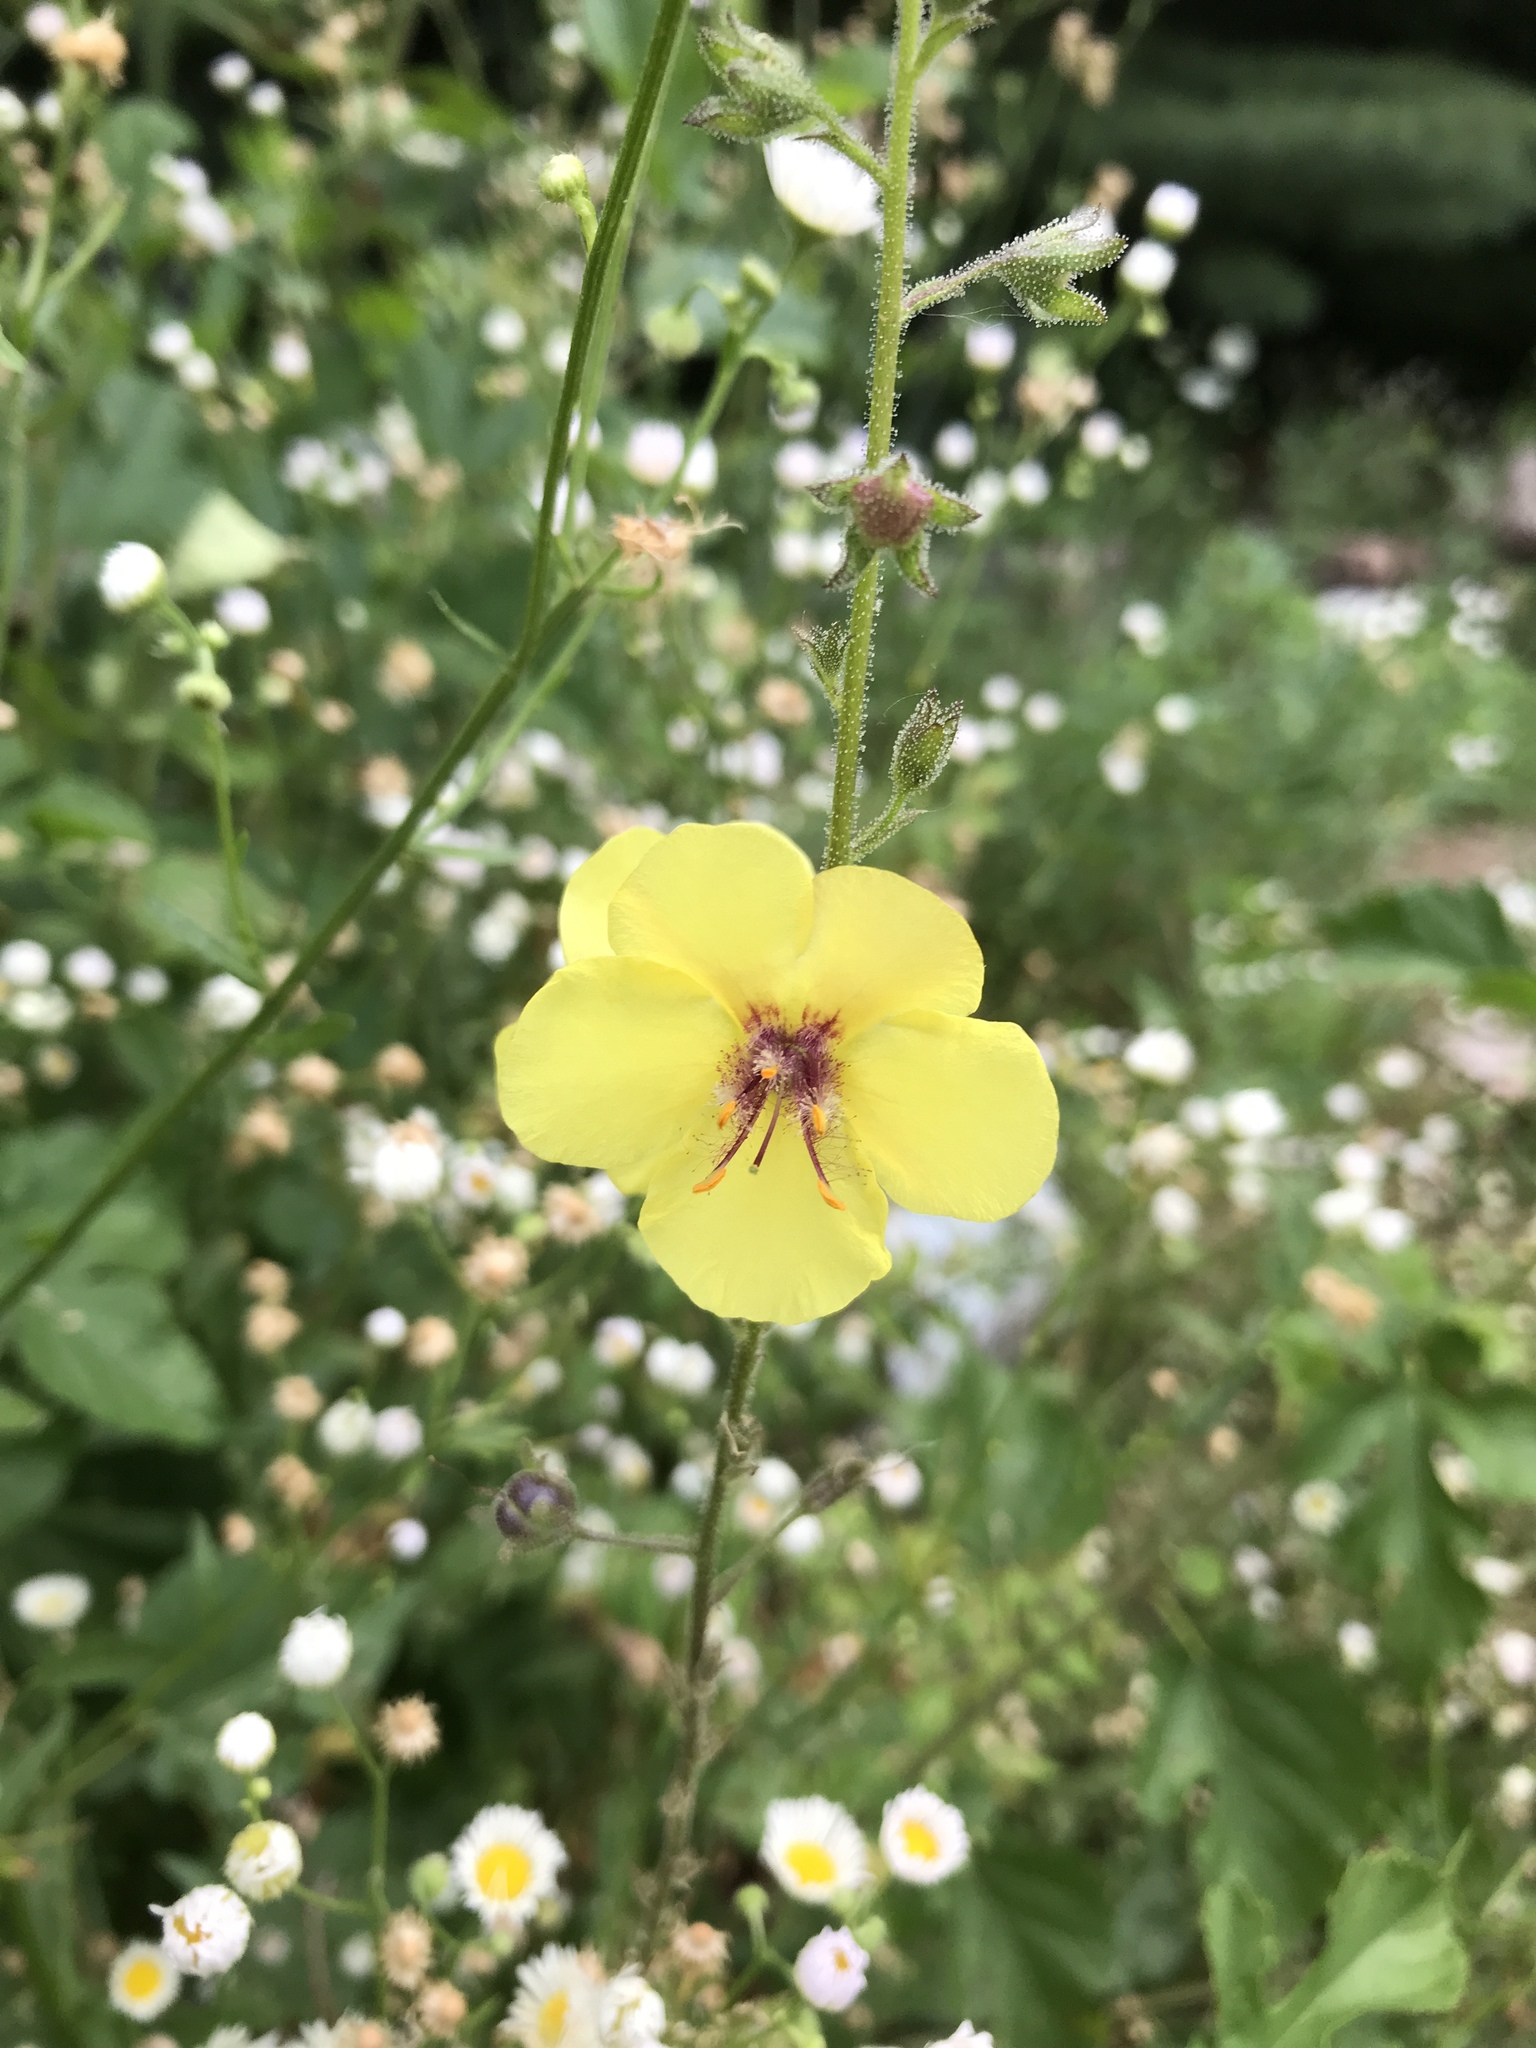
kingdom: Plantae
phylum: Tracheophyta
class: Magnoliopsida
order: Lamiales
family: Scrophulariaceae
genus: Verbascum
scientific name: Verbascum blattaria
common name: Moth mullein
